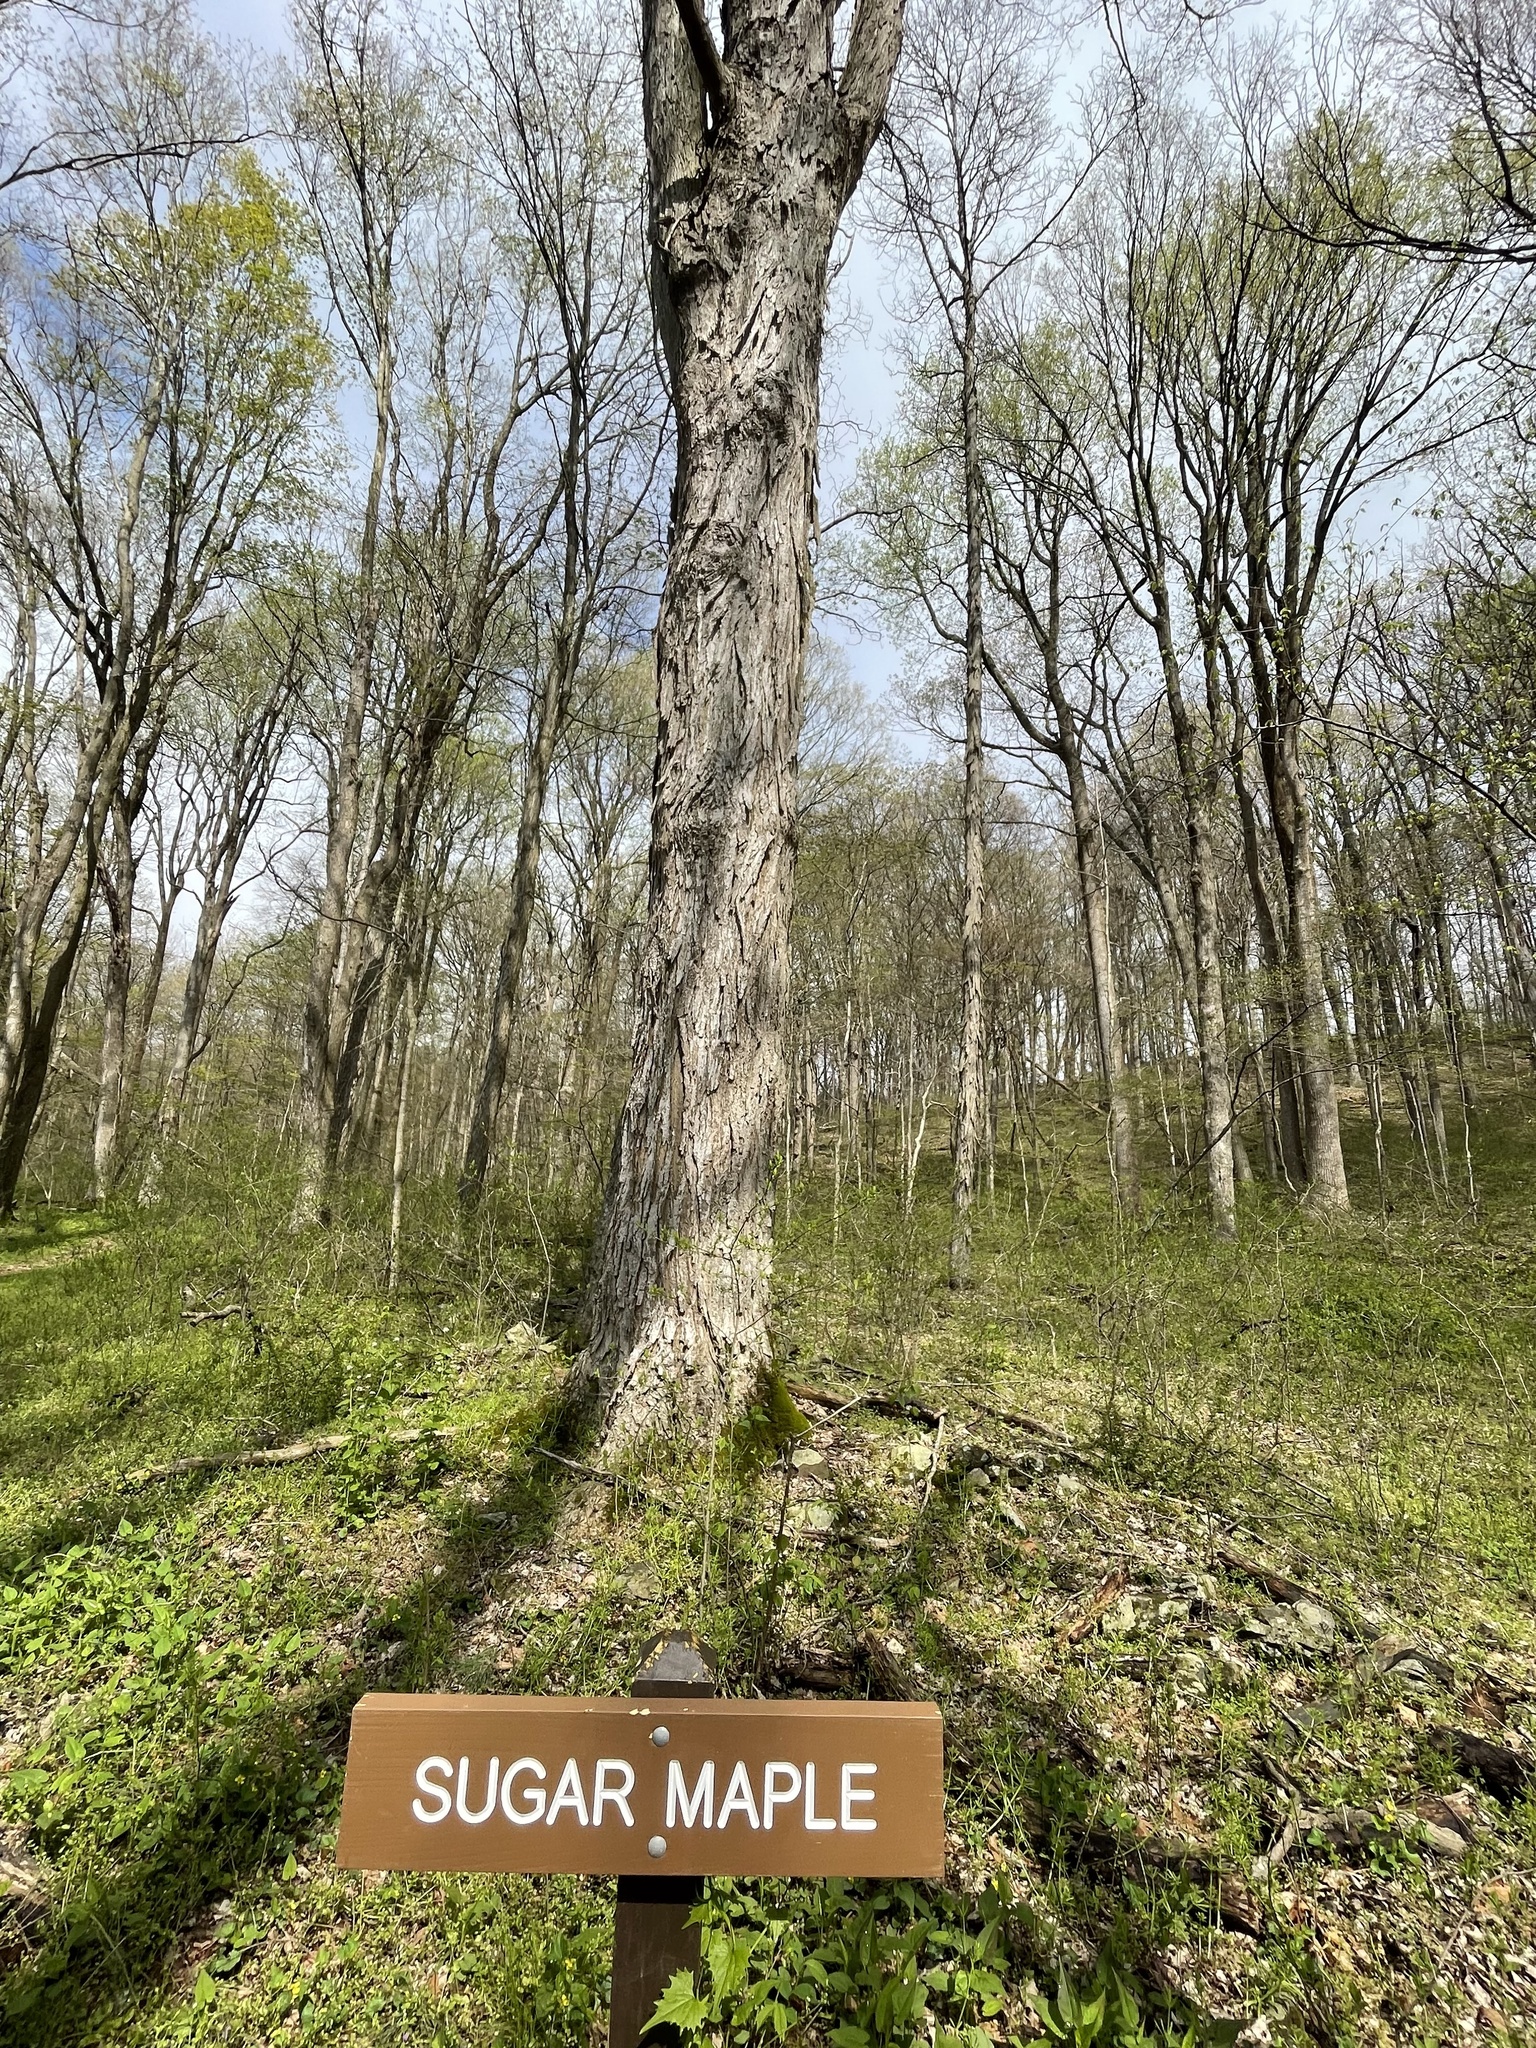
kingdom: Plantae
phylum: Tracheophyta
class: Magnoliopsida
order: Sapindales
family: Sapindaceae
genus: Acer
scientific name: Acer saccharum
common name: Sugar maple
